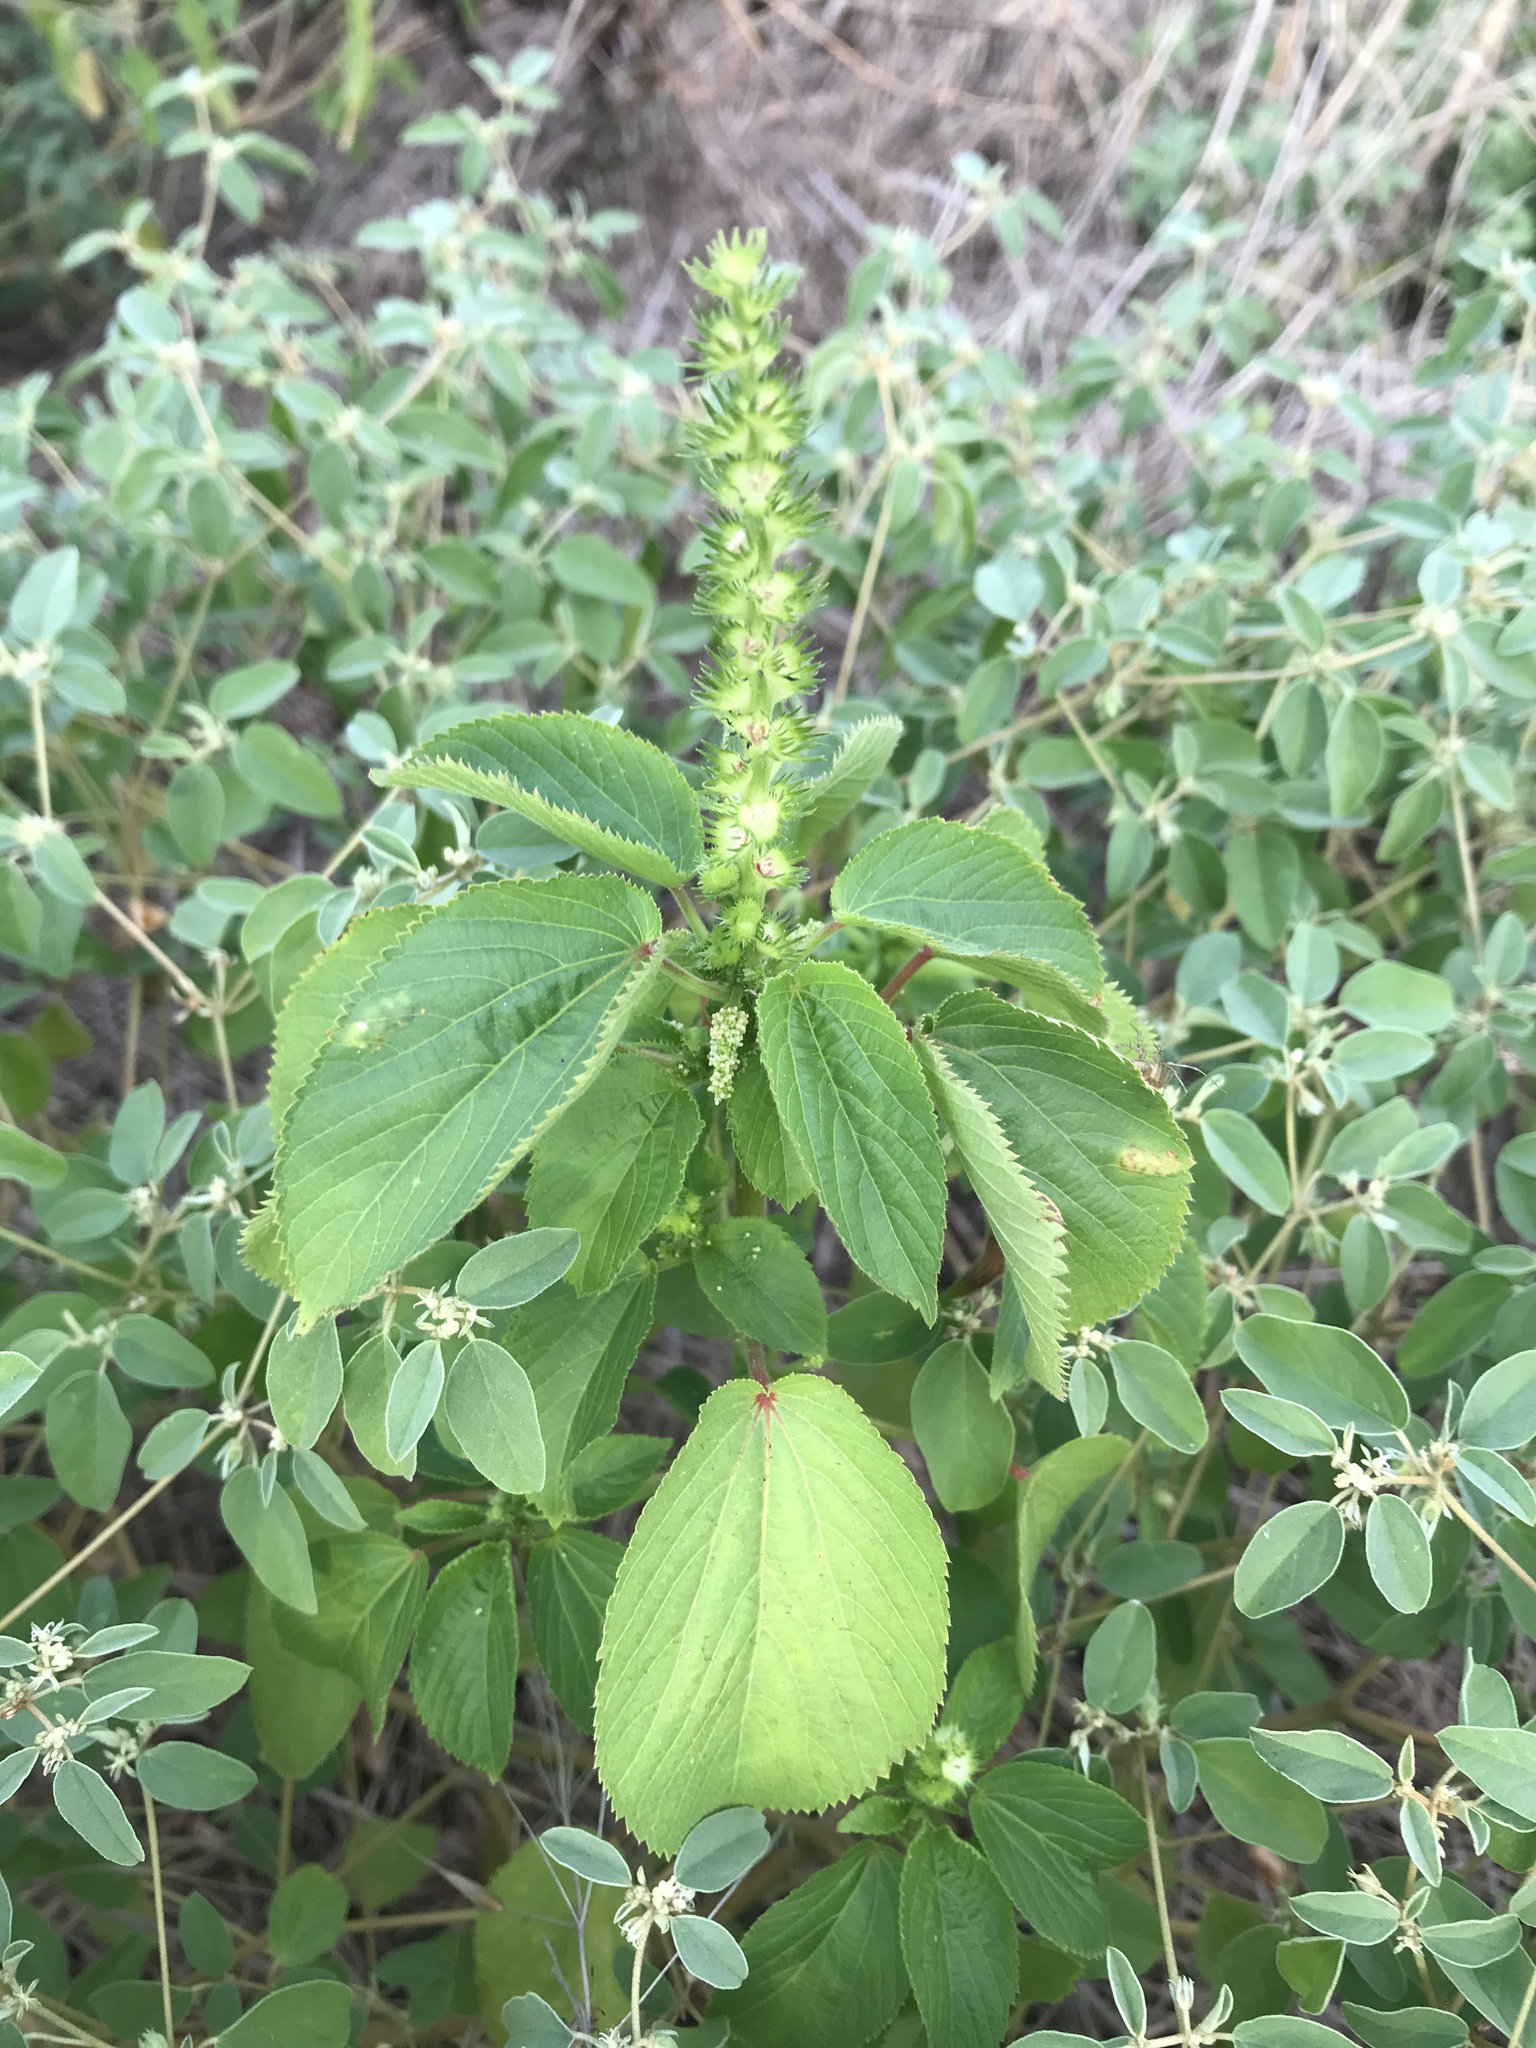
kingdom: Plantae
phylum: Tracheophyta
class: Magnoliopsida
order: Malpighiales
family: Euphorbiaceae
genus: Acalypha
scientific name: Acalypha ostryifolia
